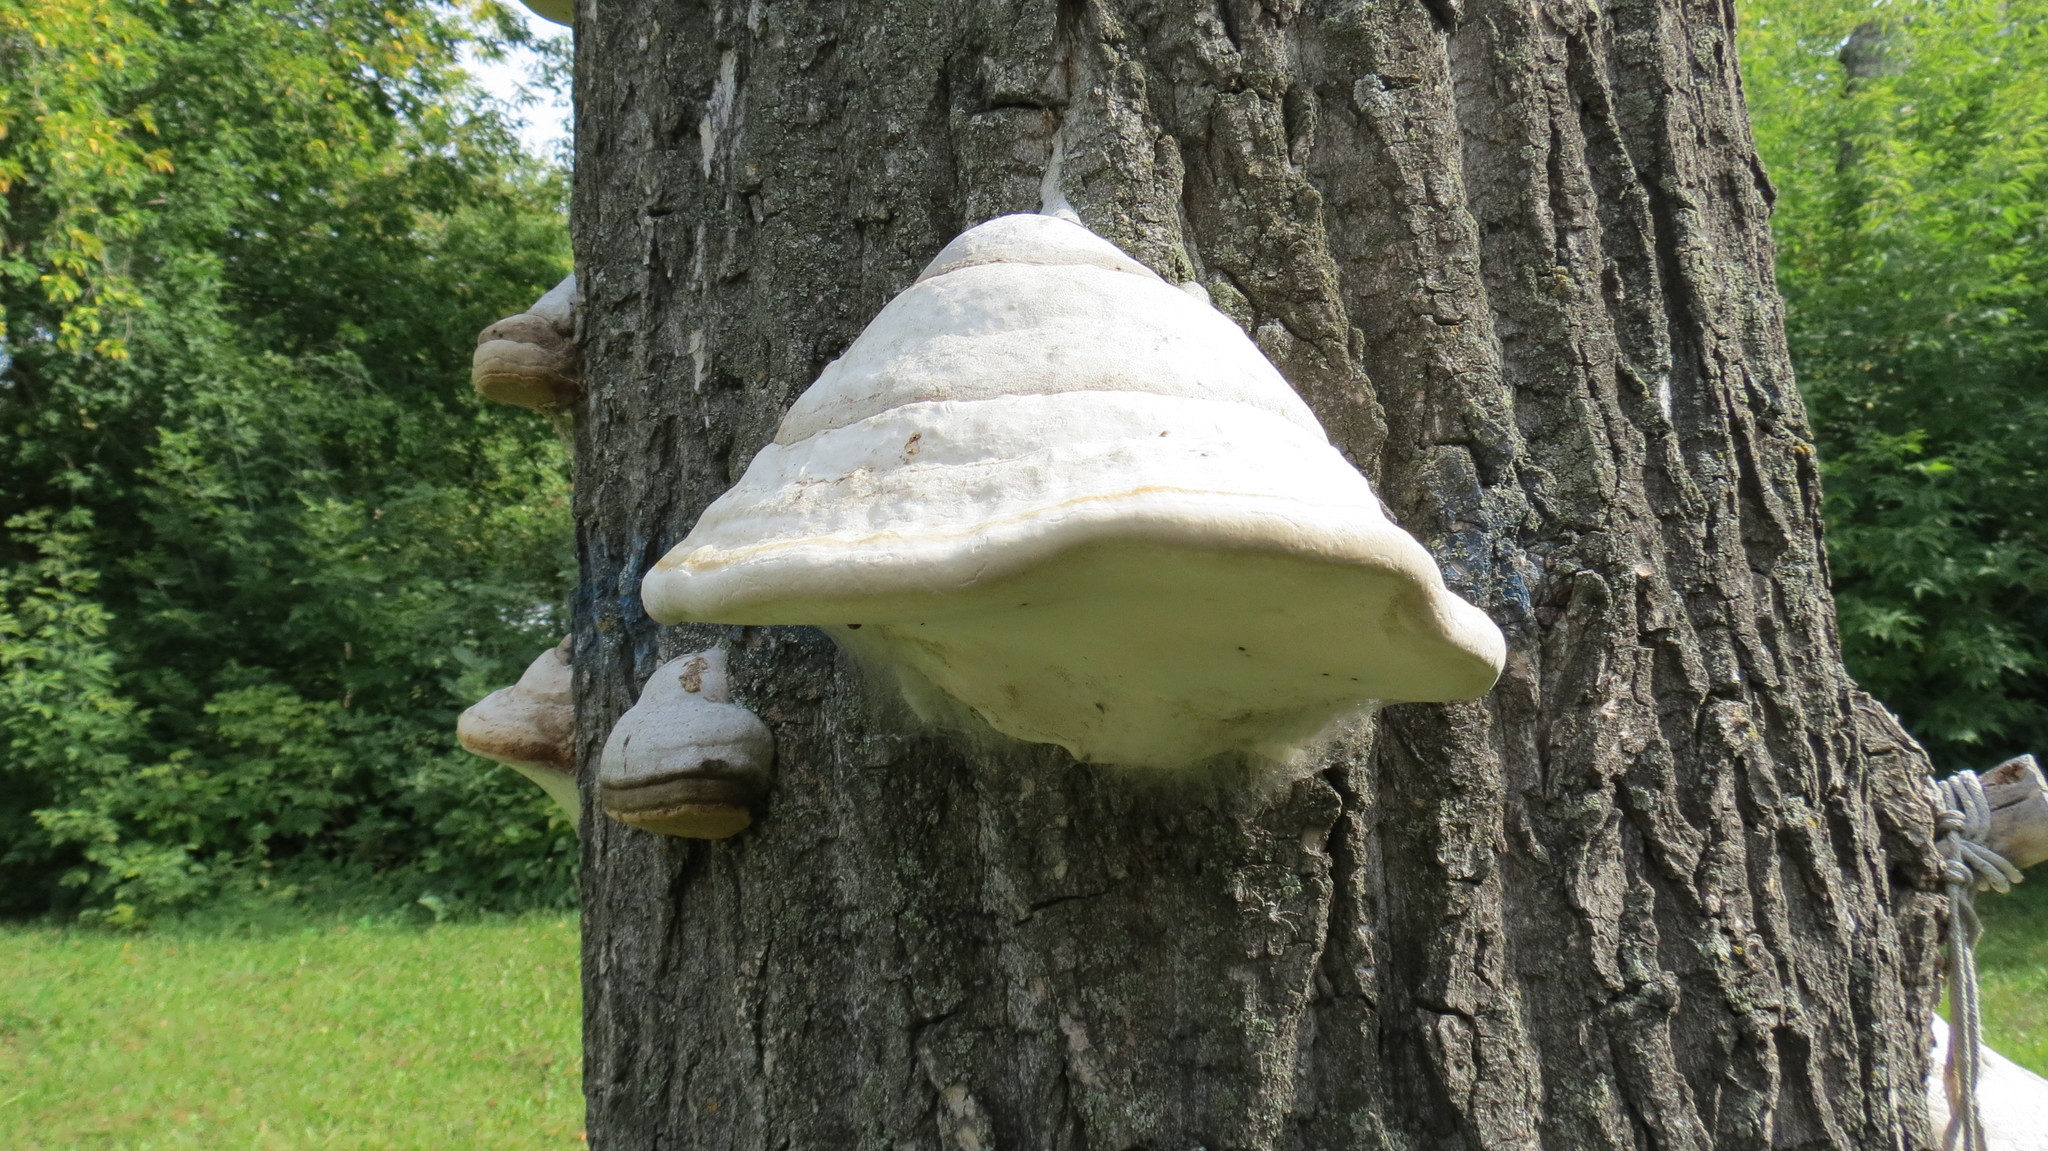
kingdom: Fungi
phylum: Basidiomycota
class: Agaricomycetes
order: Polyporales
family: Polyporaceae
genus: Fomes
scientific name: Fomes fomentarius
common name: Hoof fungus
